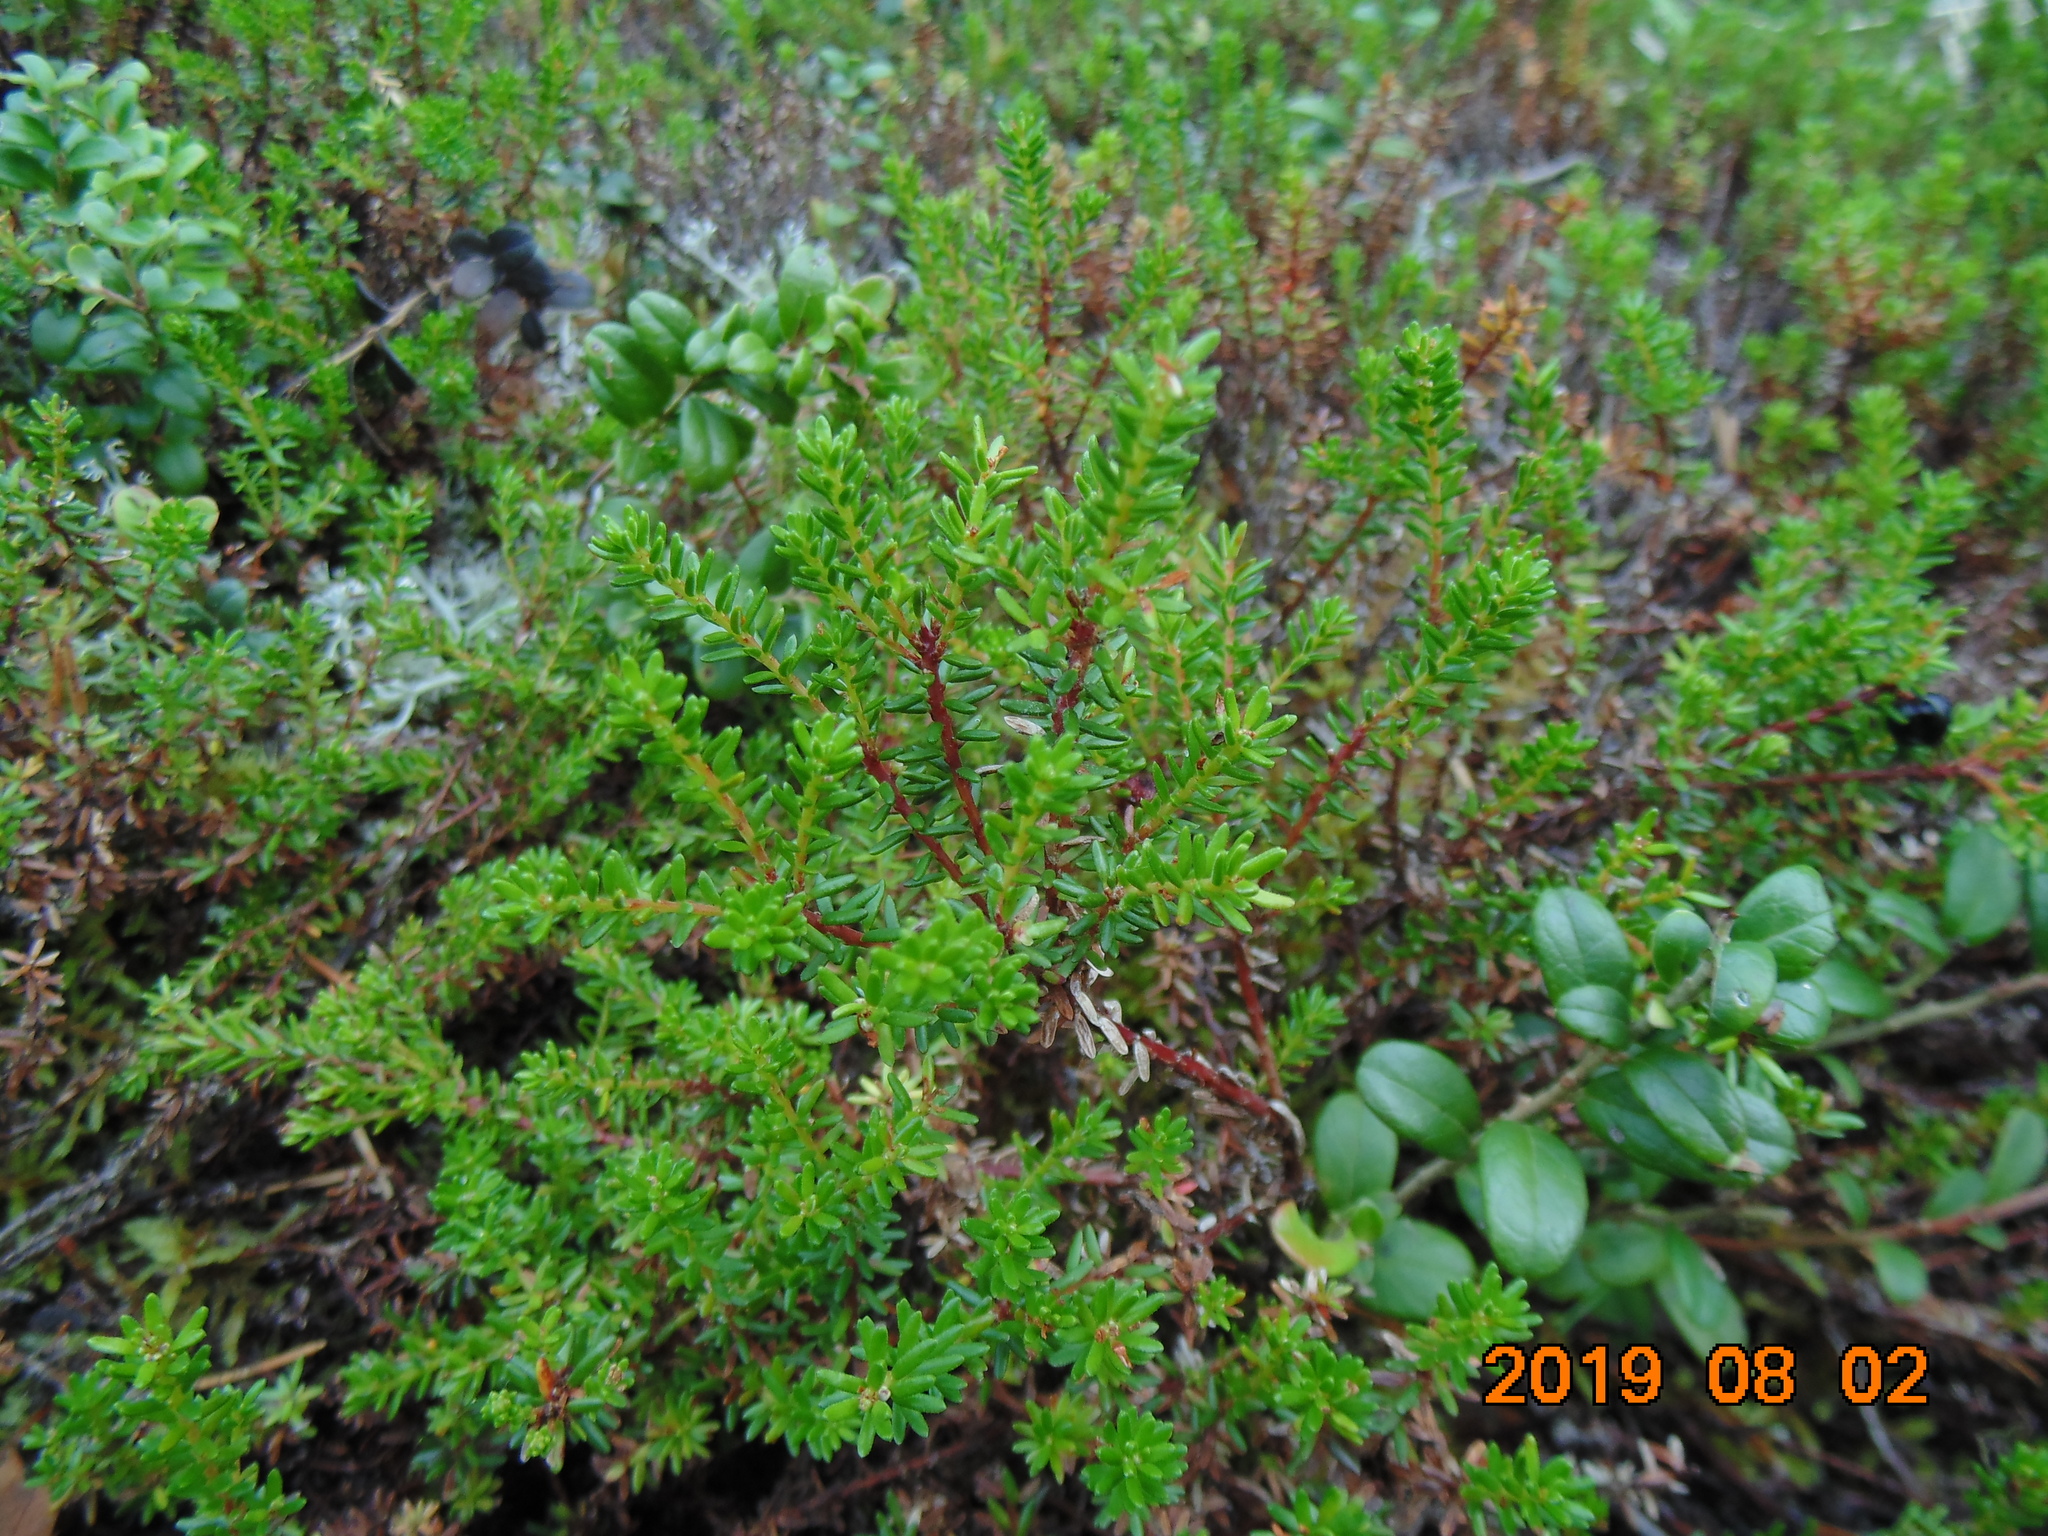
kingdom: Plantae
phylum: Tracheophyta
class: Magnoliopsida
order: Ericales
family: Ericaceae
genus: Empetrum
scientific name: Empetrum nigrum
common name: Black crowberry
